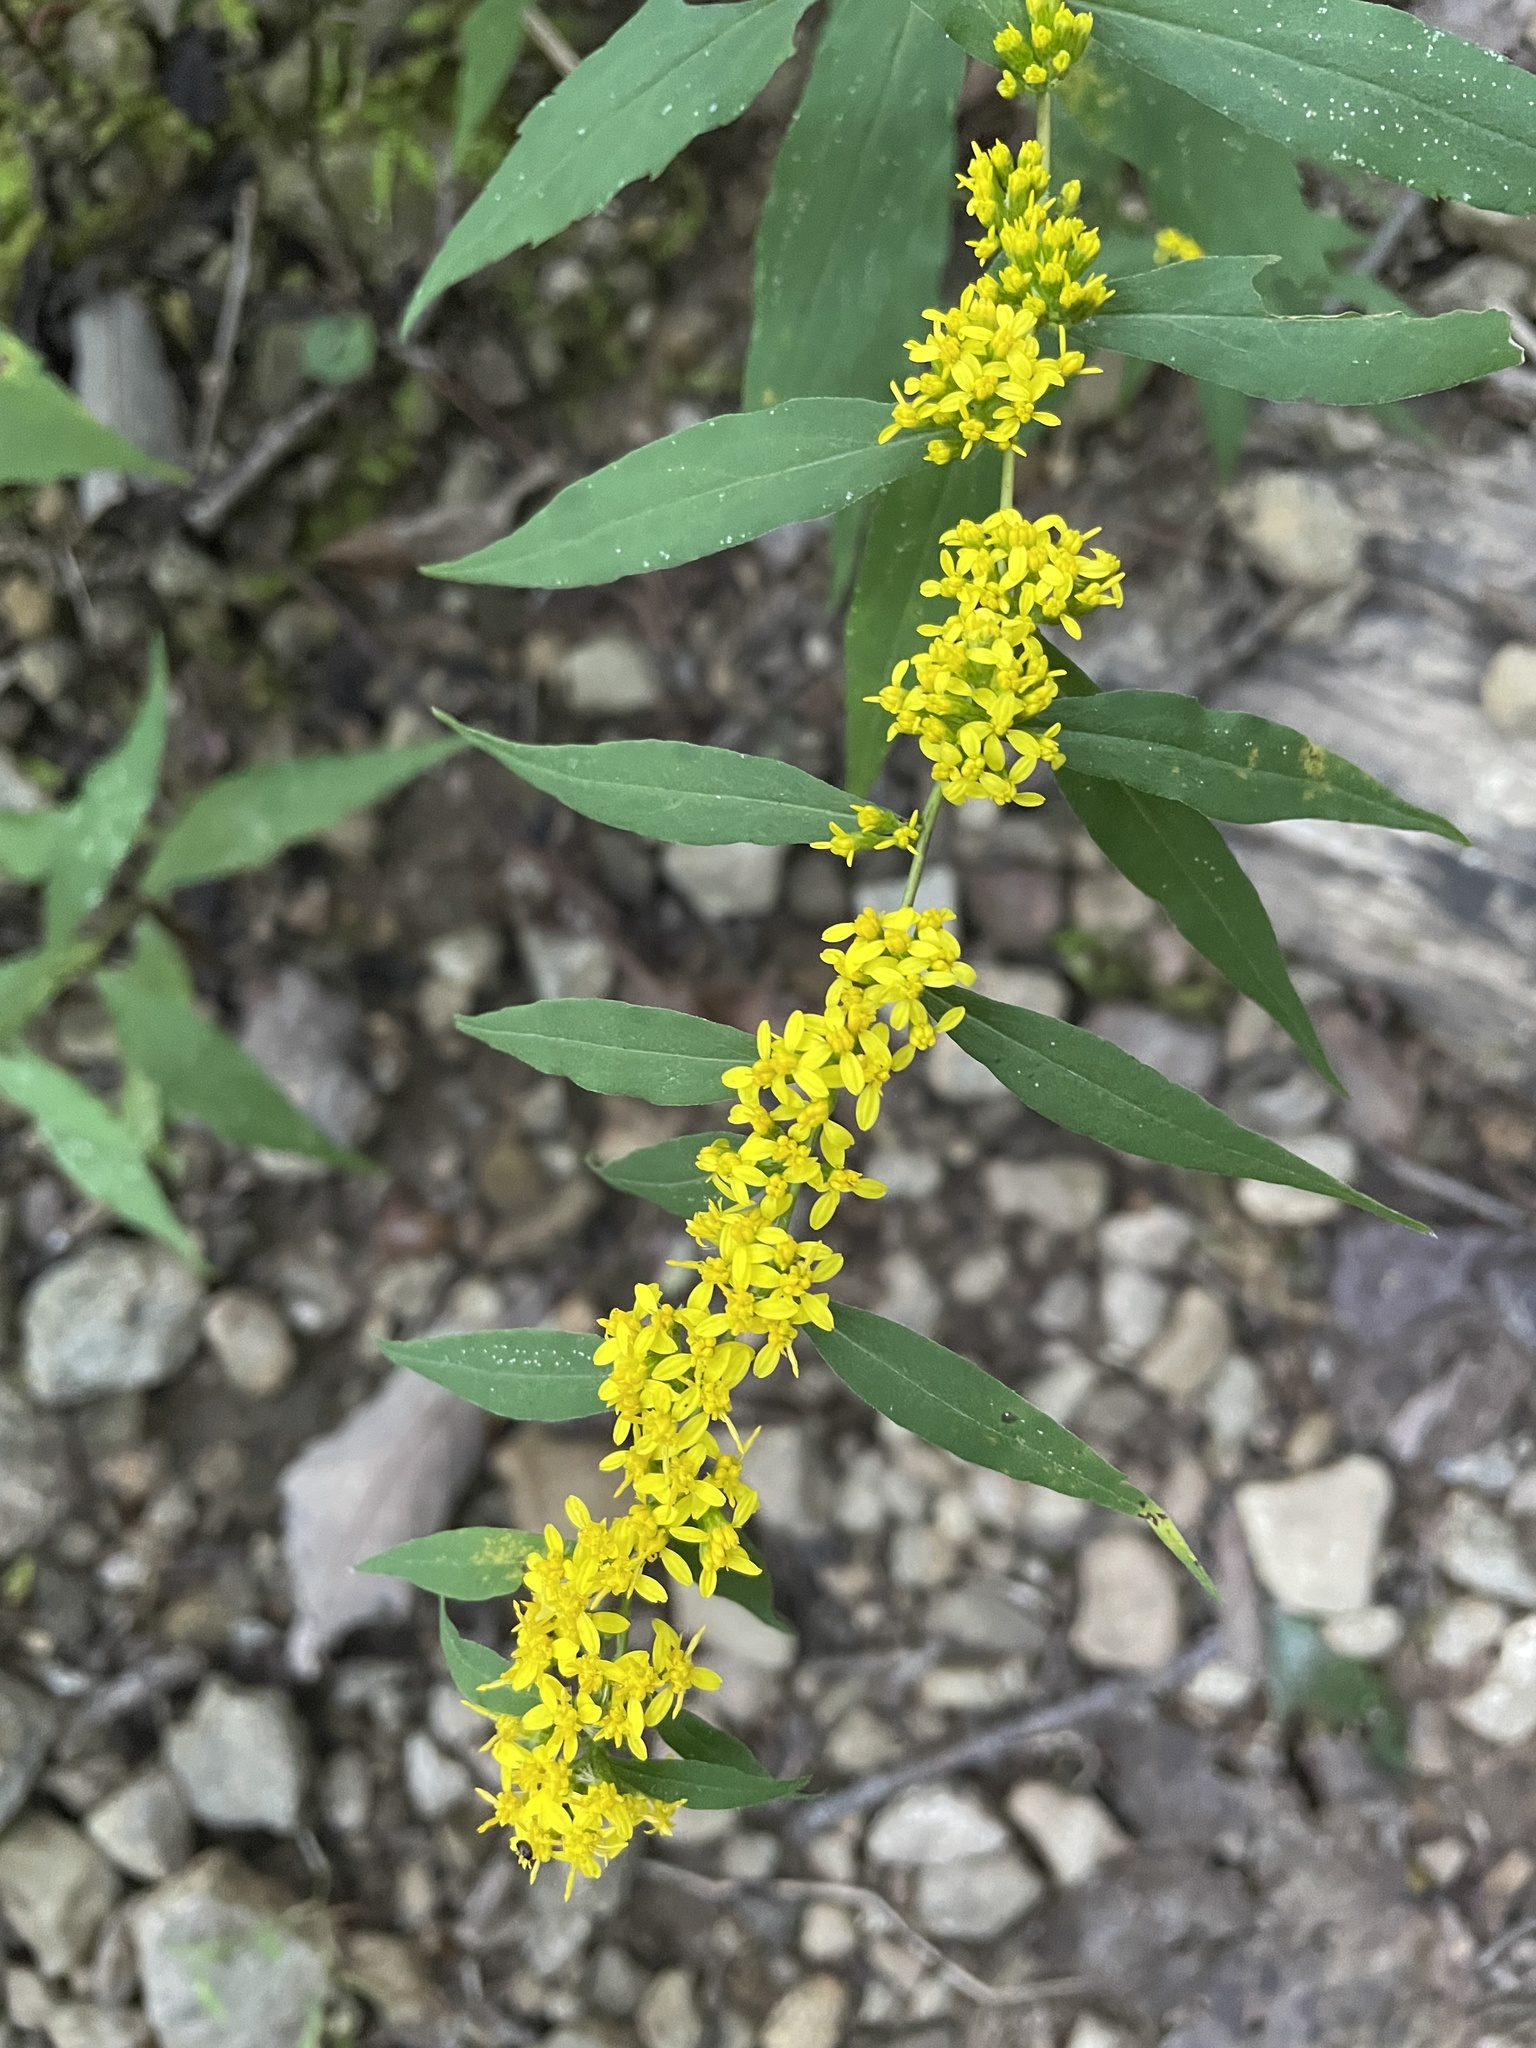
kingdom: Plantae
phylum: Tracheophyta
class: Magnoliopsida
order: Asterales
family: Asteraceae
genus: Solidago
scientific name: Solidago caesia
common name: Woodland goldenrod
